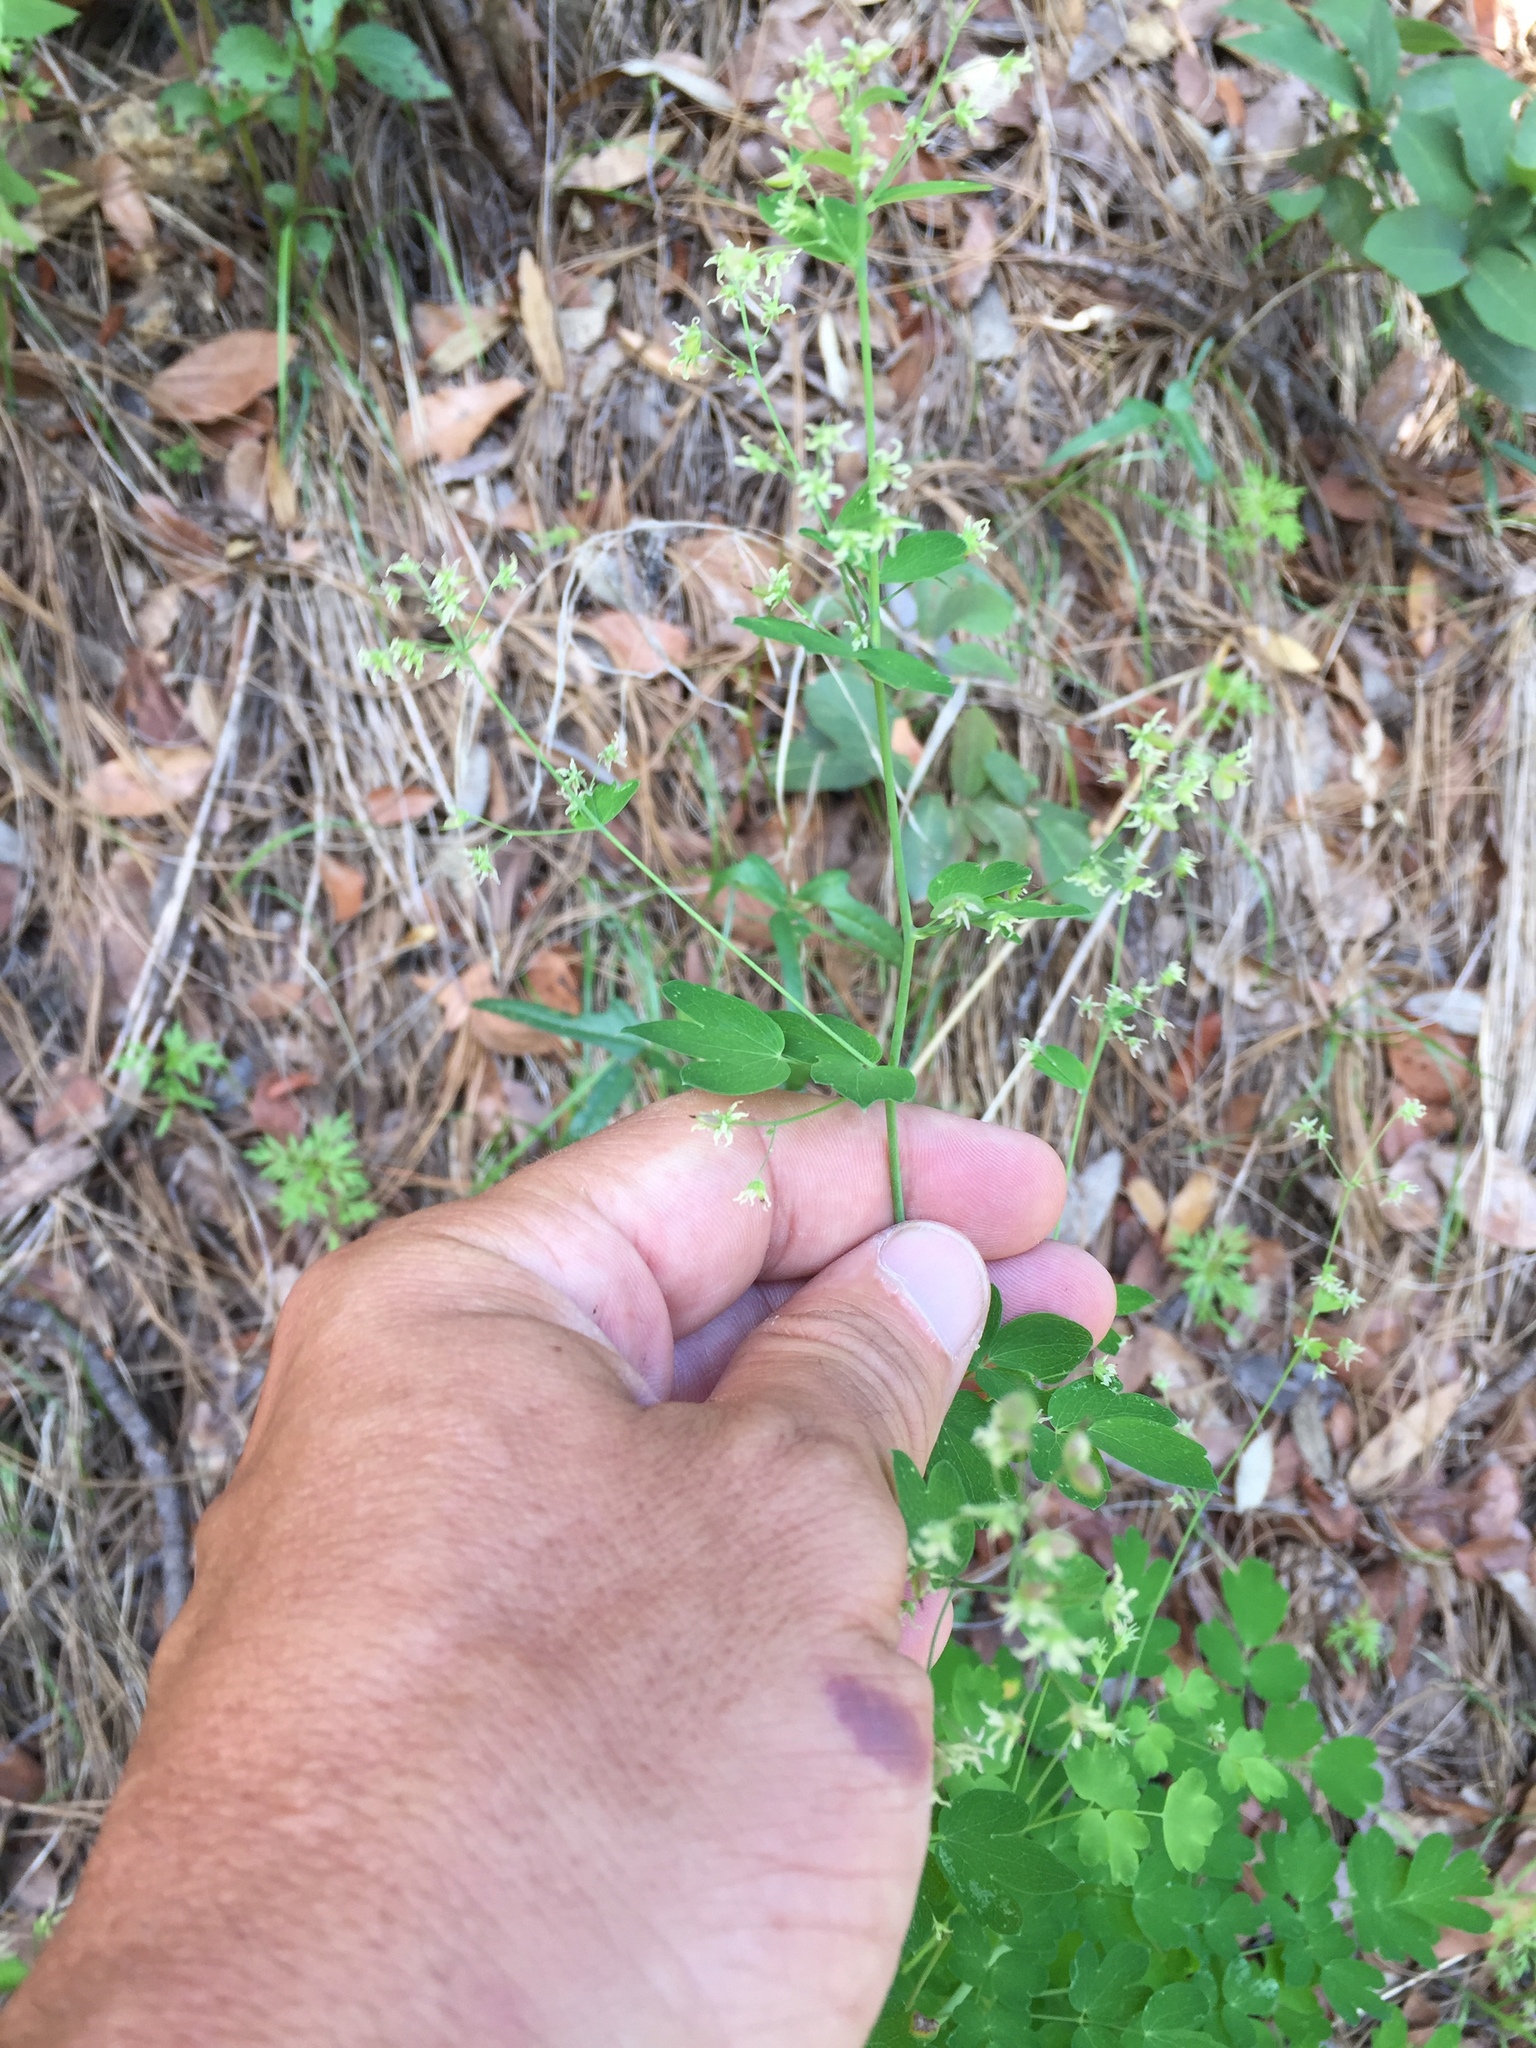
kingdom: Plantae
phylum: Tracheophyta
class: Magnoliopsida
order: Ranunculales
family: Ranunculaceae
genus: Thalictrum
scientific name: Thalictrum fendleri
